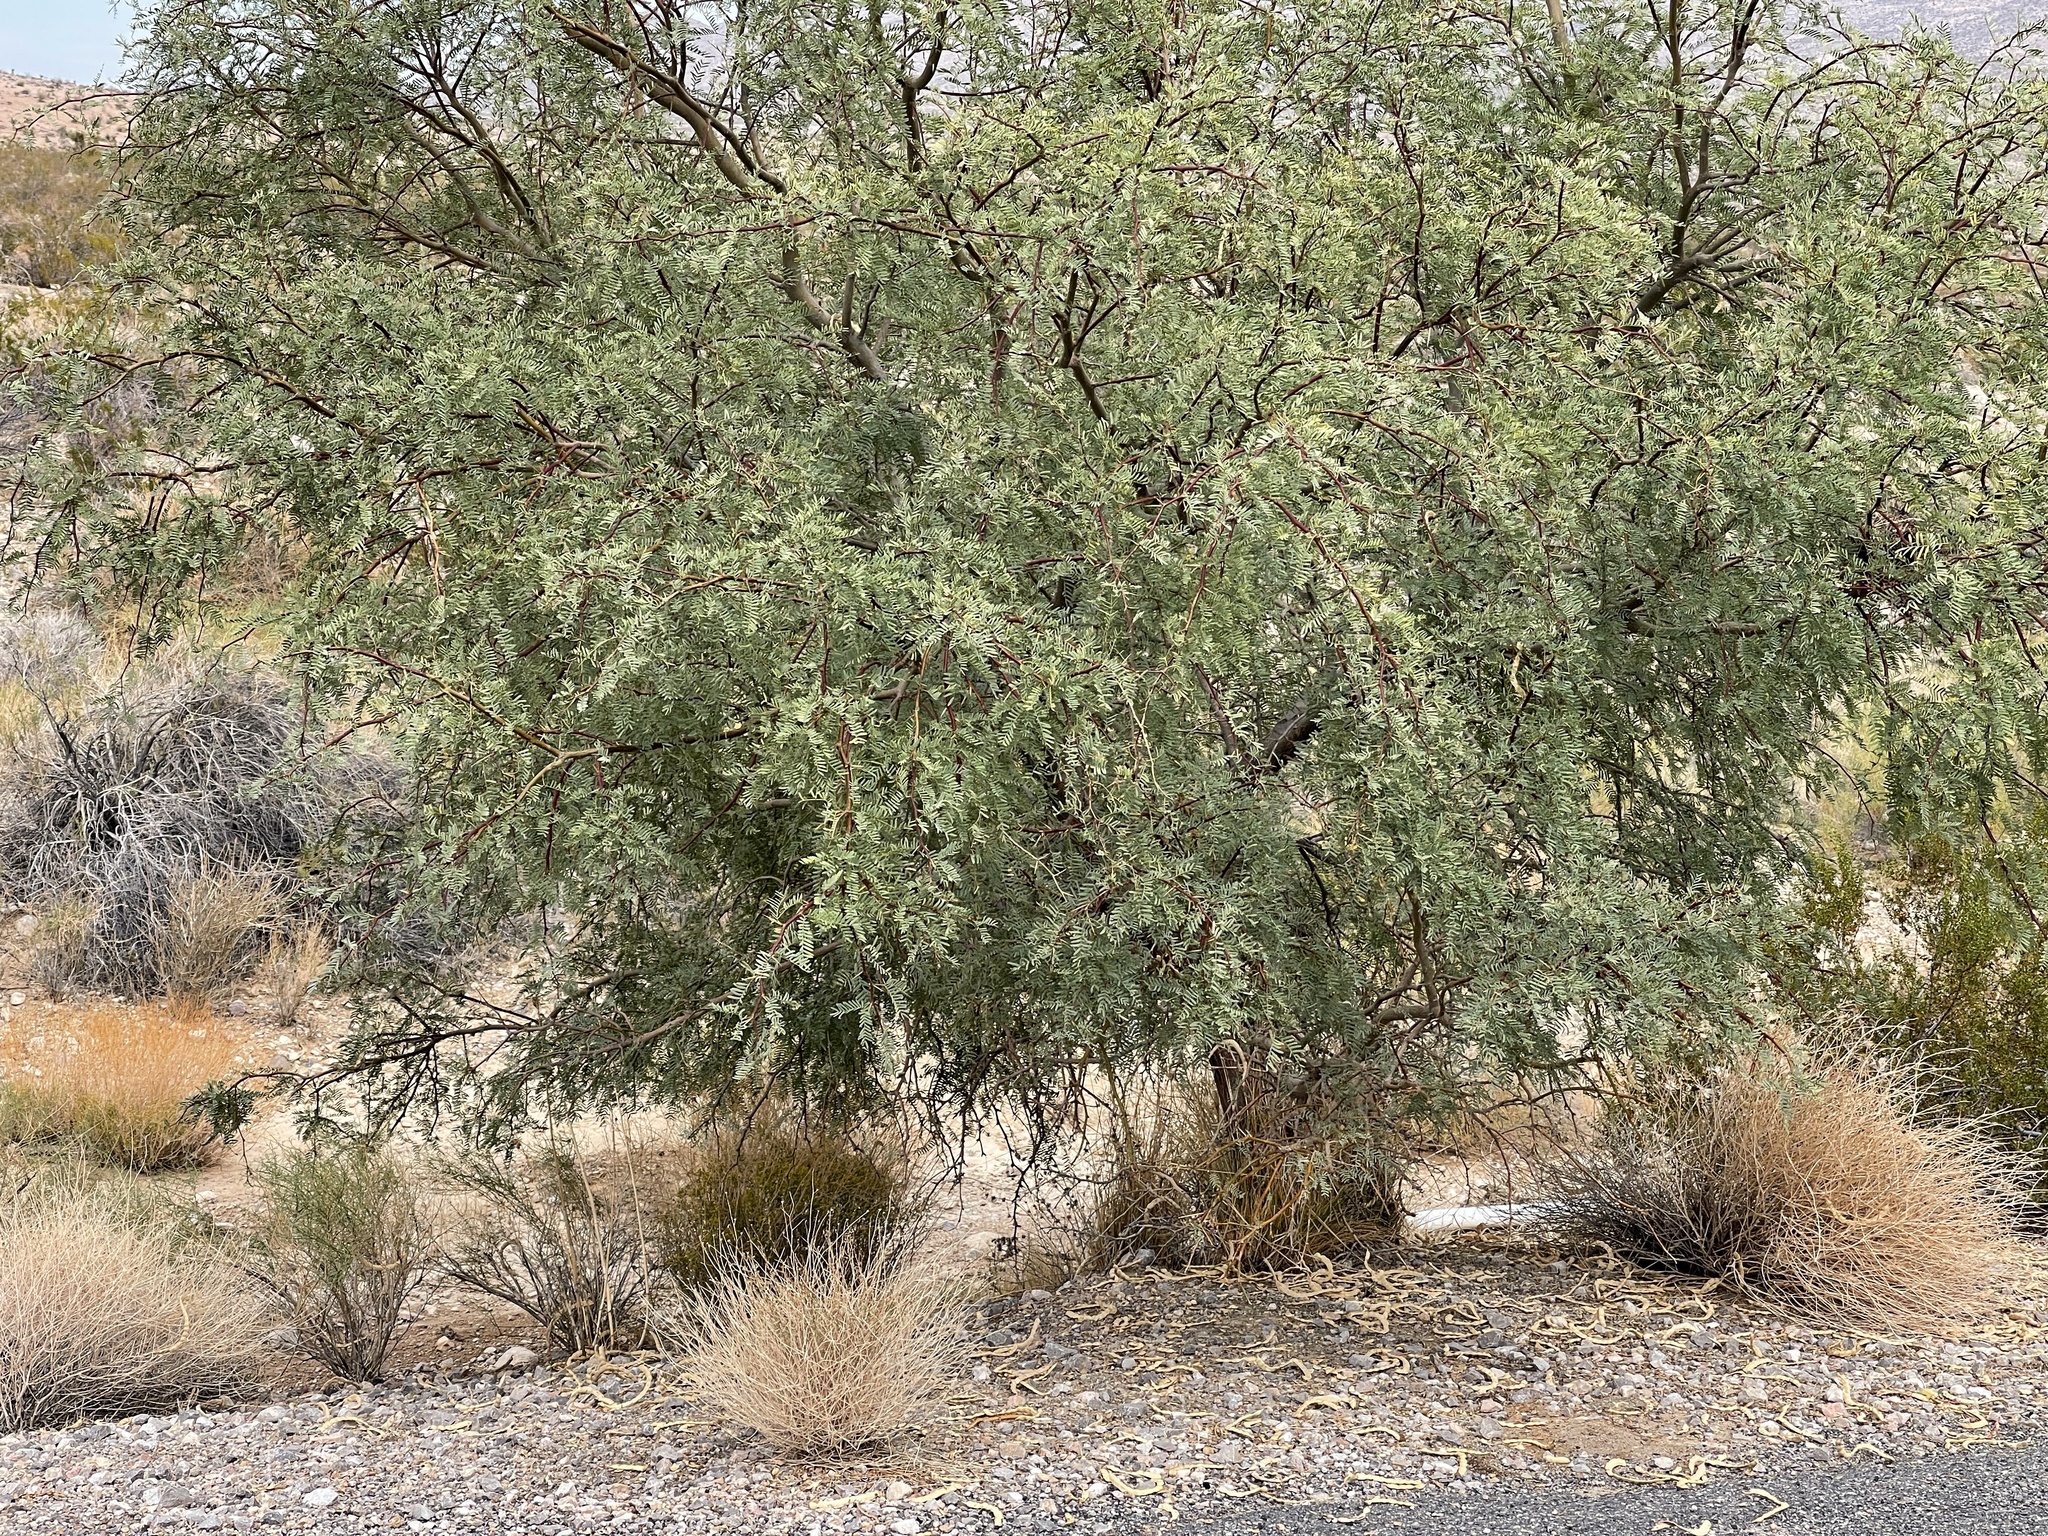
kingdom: Plantae
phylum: Tracheophyta
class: Magnoliopsida
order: Fabales
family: Fabaceae
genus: Prosopis
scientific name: Prosopis pubescens
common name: Screw-bean
